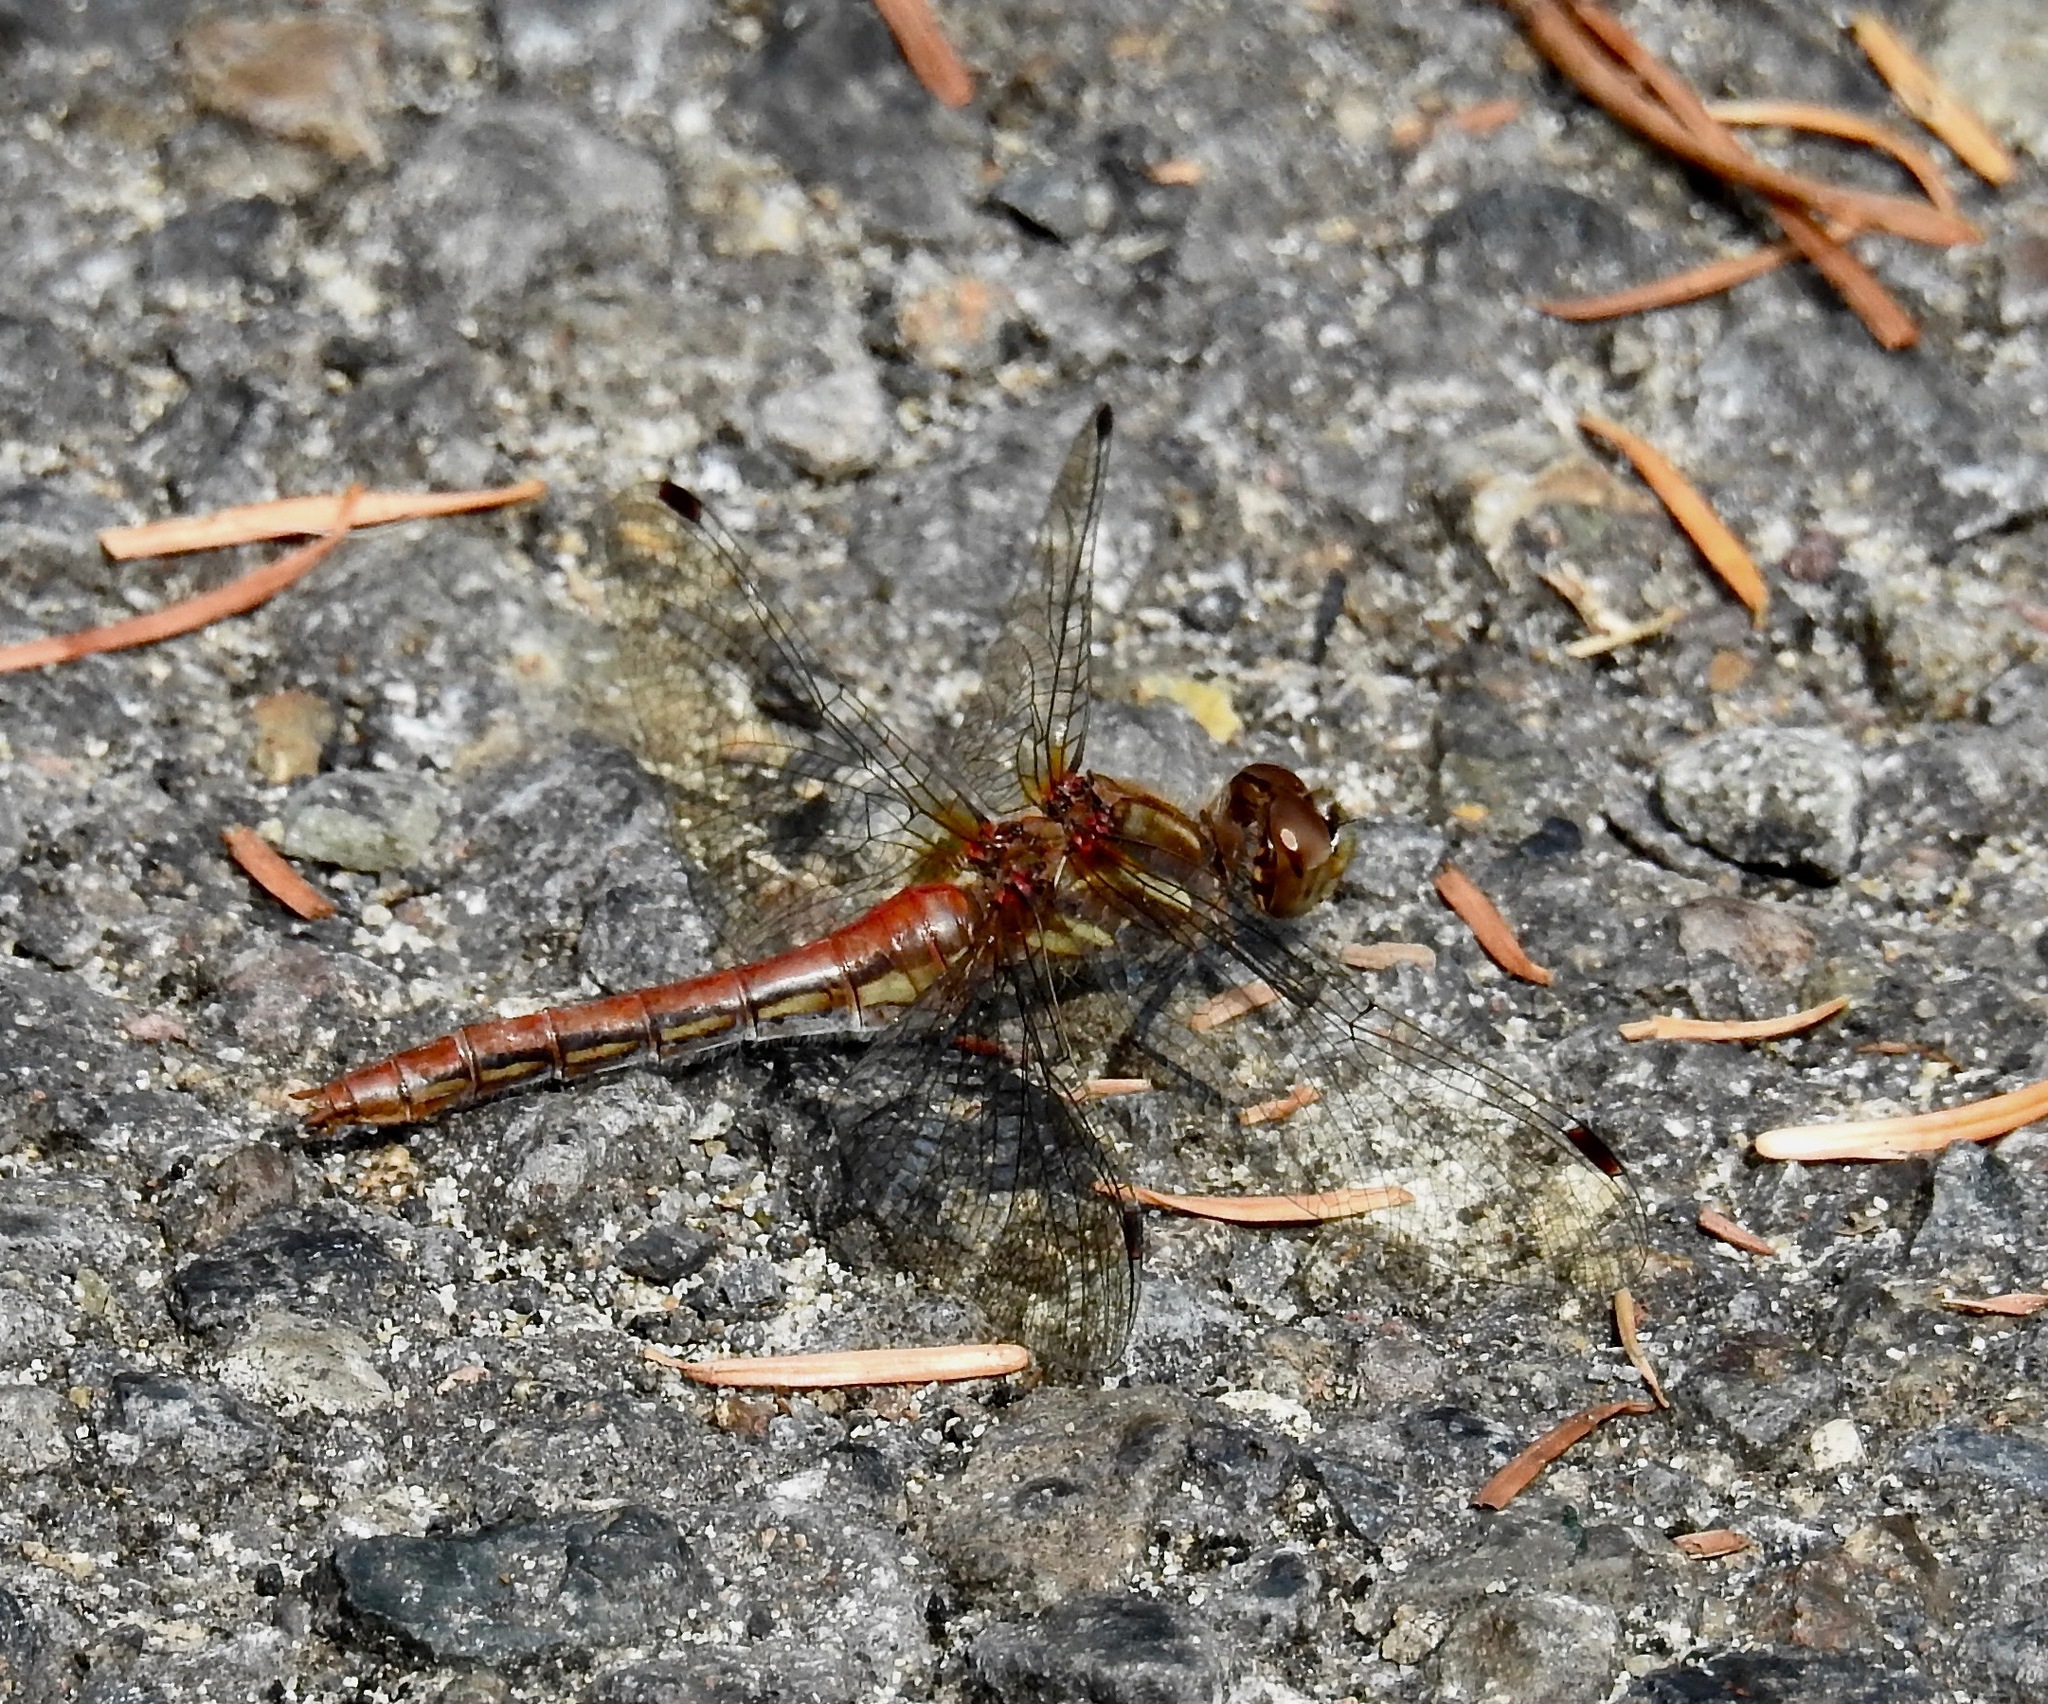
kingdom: Animalia
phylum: Arthropoda
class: Insecta
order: Odonata
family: Libellulidae
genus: Sympetrum
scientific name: Sympetrum pallipes
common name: Striped meadowhawk
